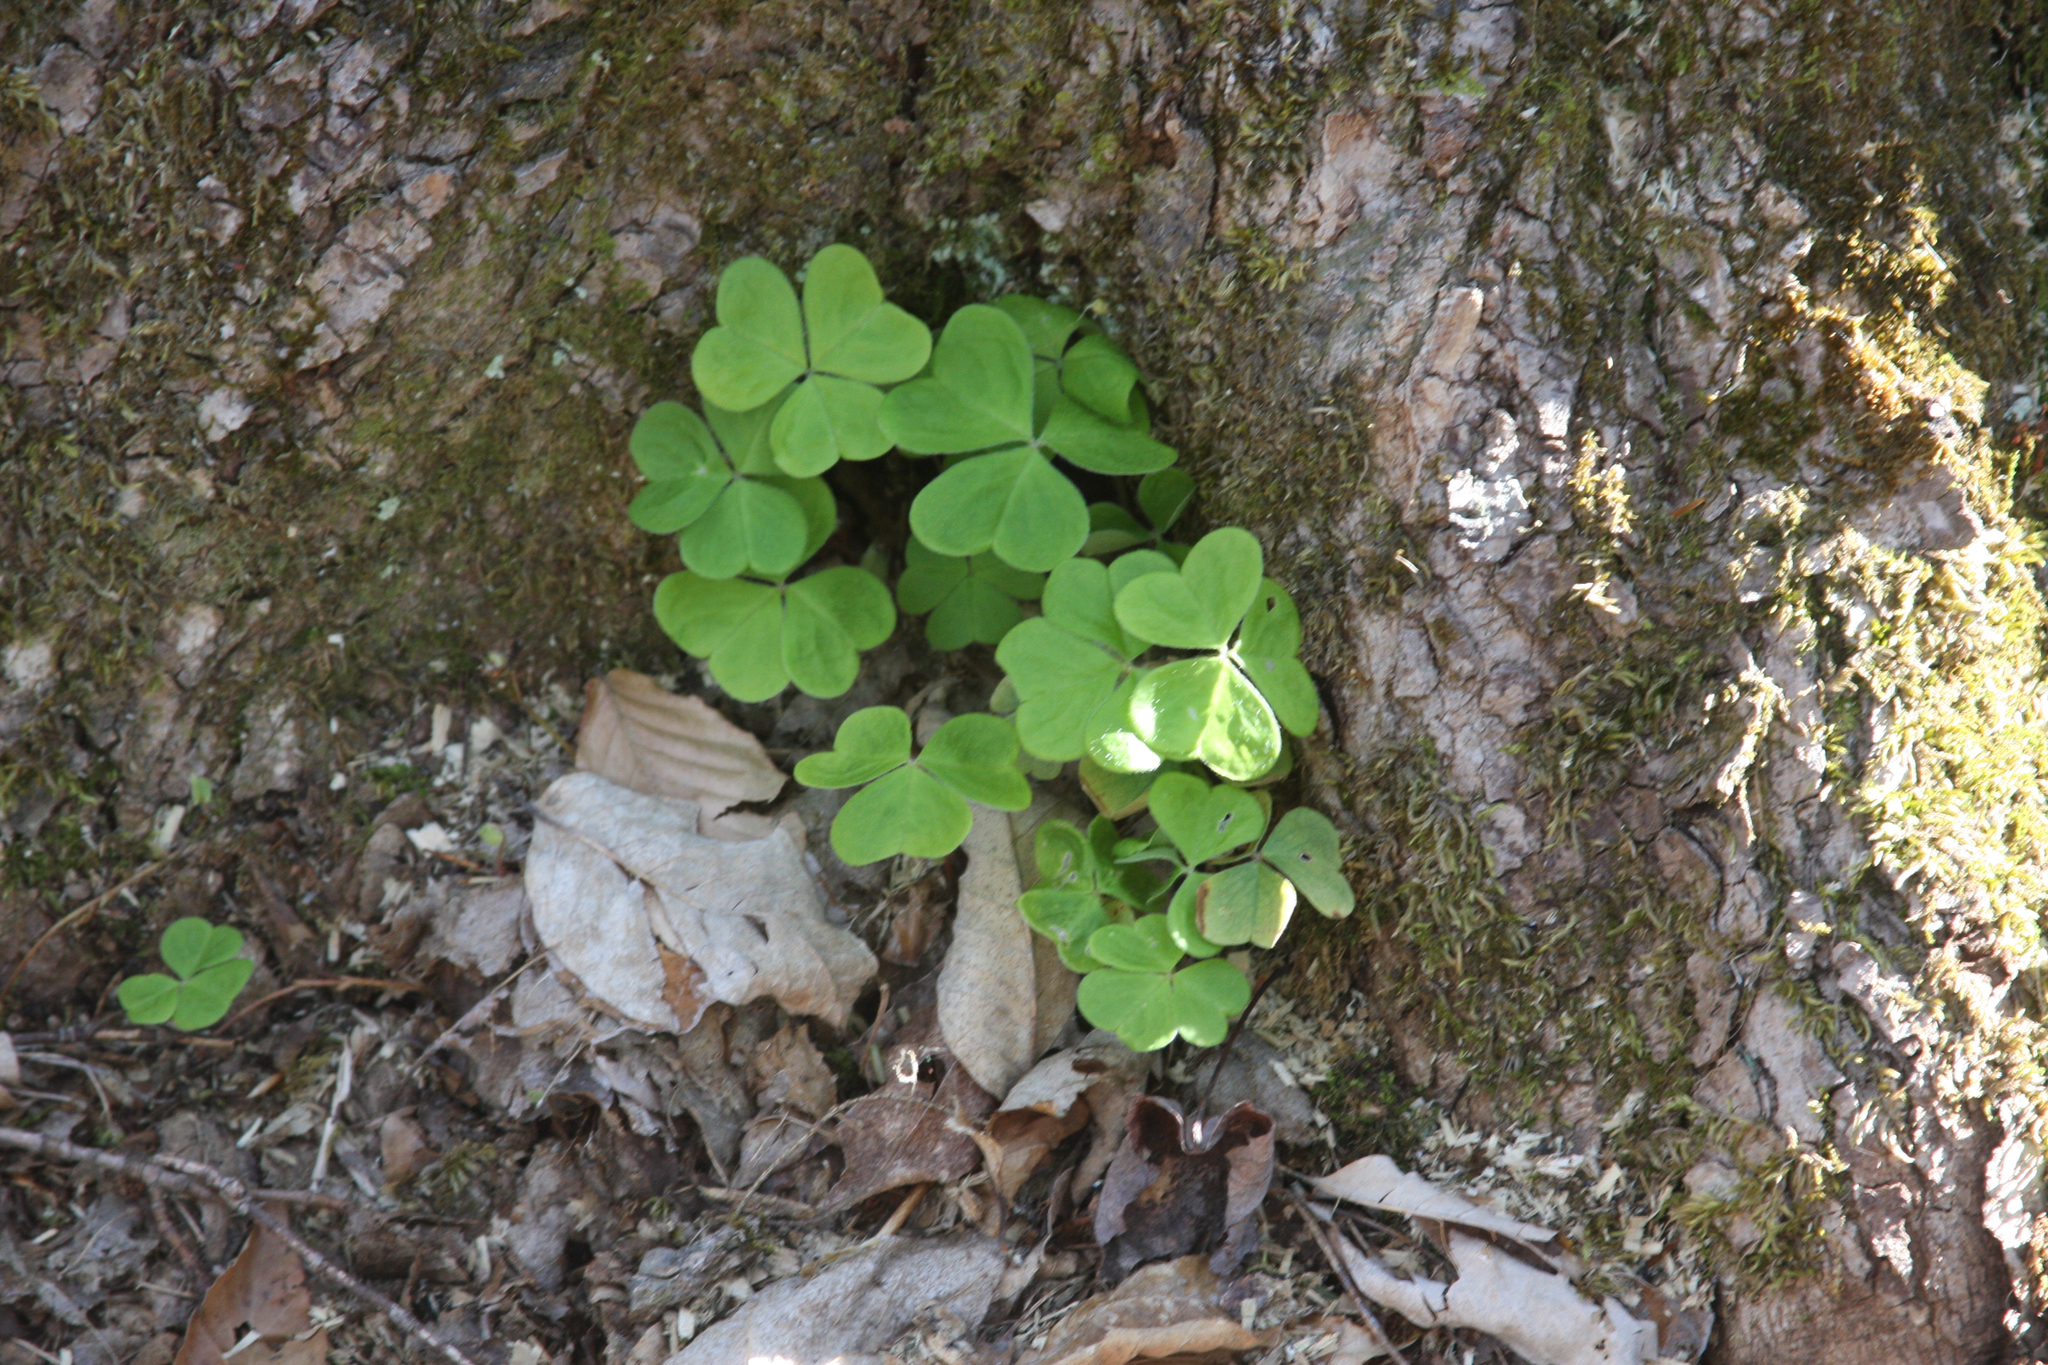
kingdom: Plantae
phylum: Tracheophyta
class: Magnoliopsida
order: Oxalidales
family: Oxalidaceae
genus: Oxalis
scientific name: Oxalis montana
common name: American wood-sorrel
